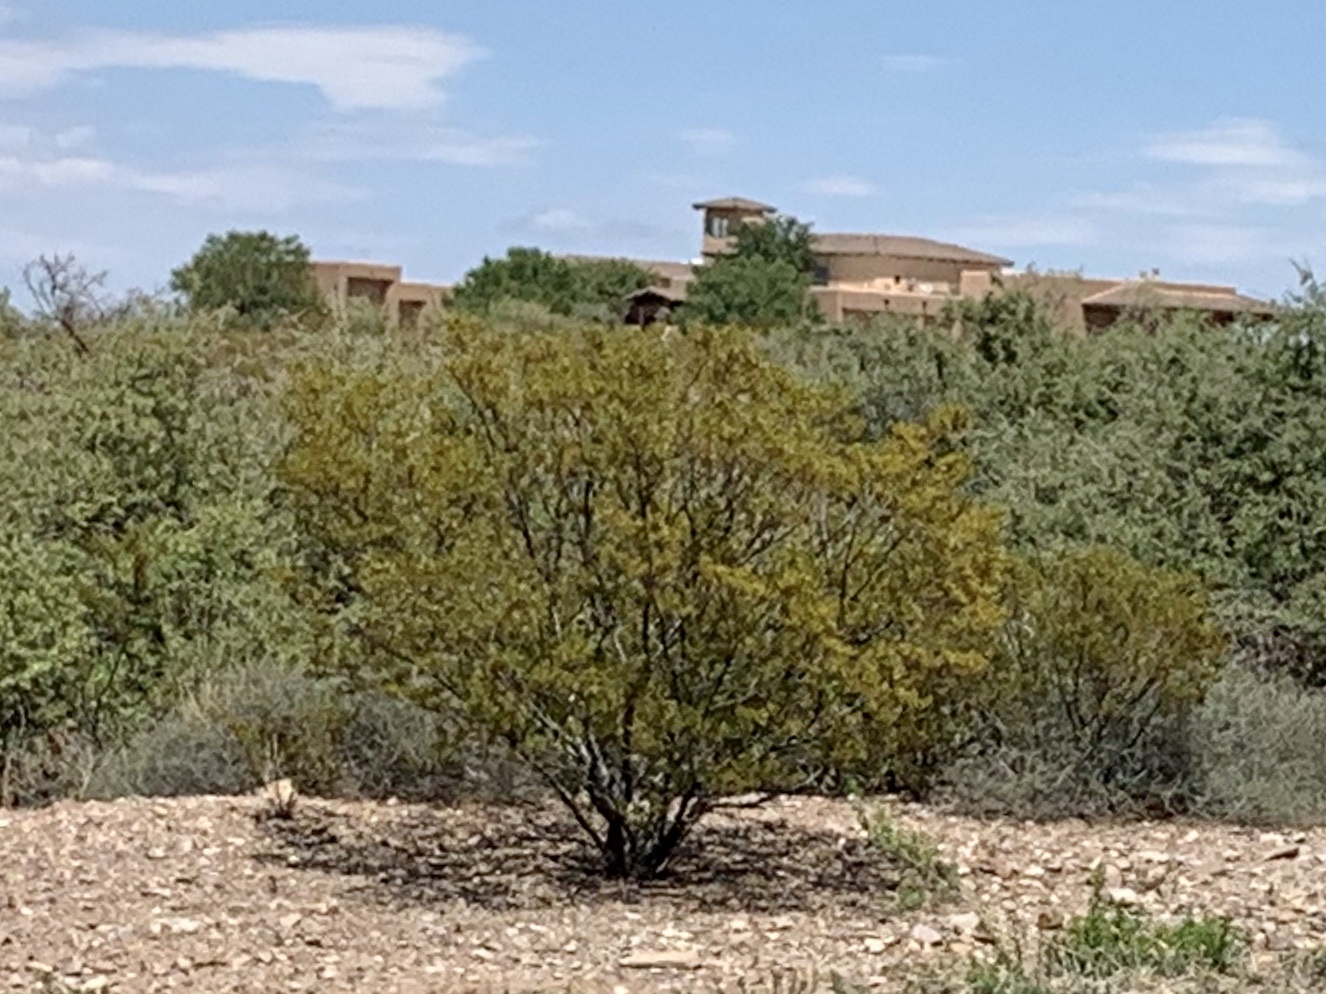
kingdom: Plantae
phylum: Tracheophyta
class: Magnoliopsida
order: Zygophyllales
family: Zygophyllaceae
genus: Larrea
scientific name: Larrea tridentata
